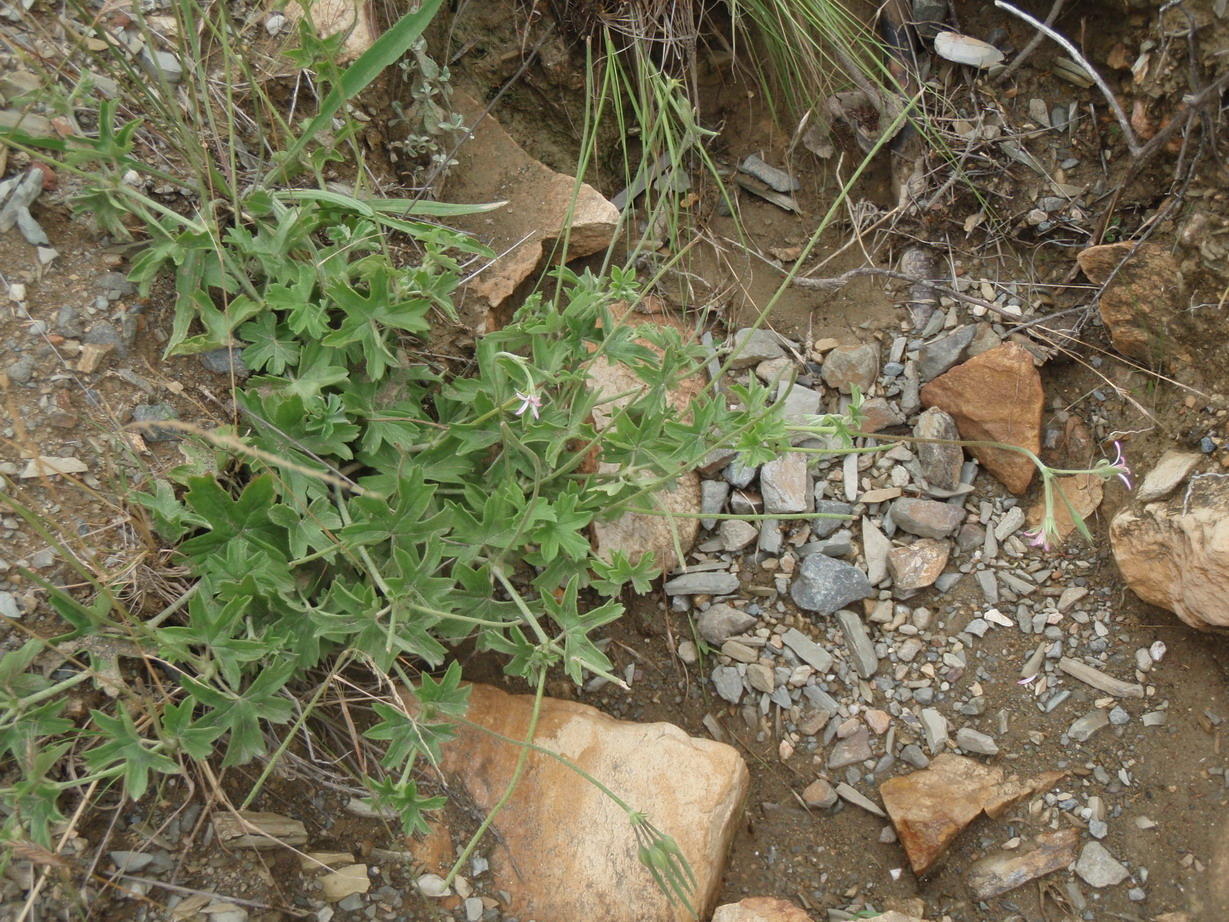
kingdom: Plantae
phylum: Tracheophyta
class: Magnoliopsida
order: Geraniales
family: Geraniaceae
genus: Pelargonium
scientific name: Pelargonium alchemilloides
